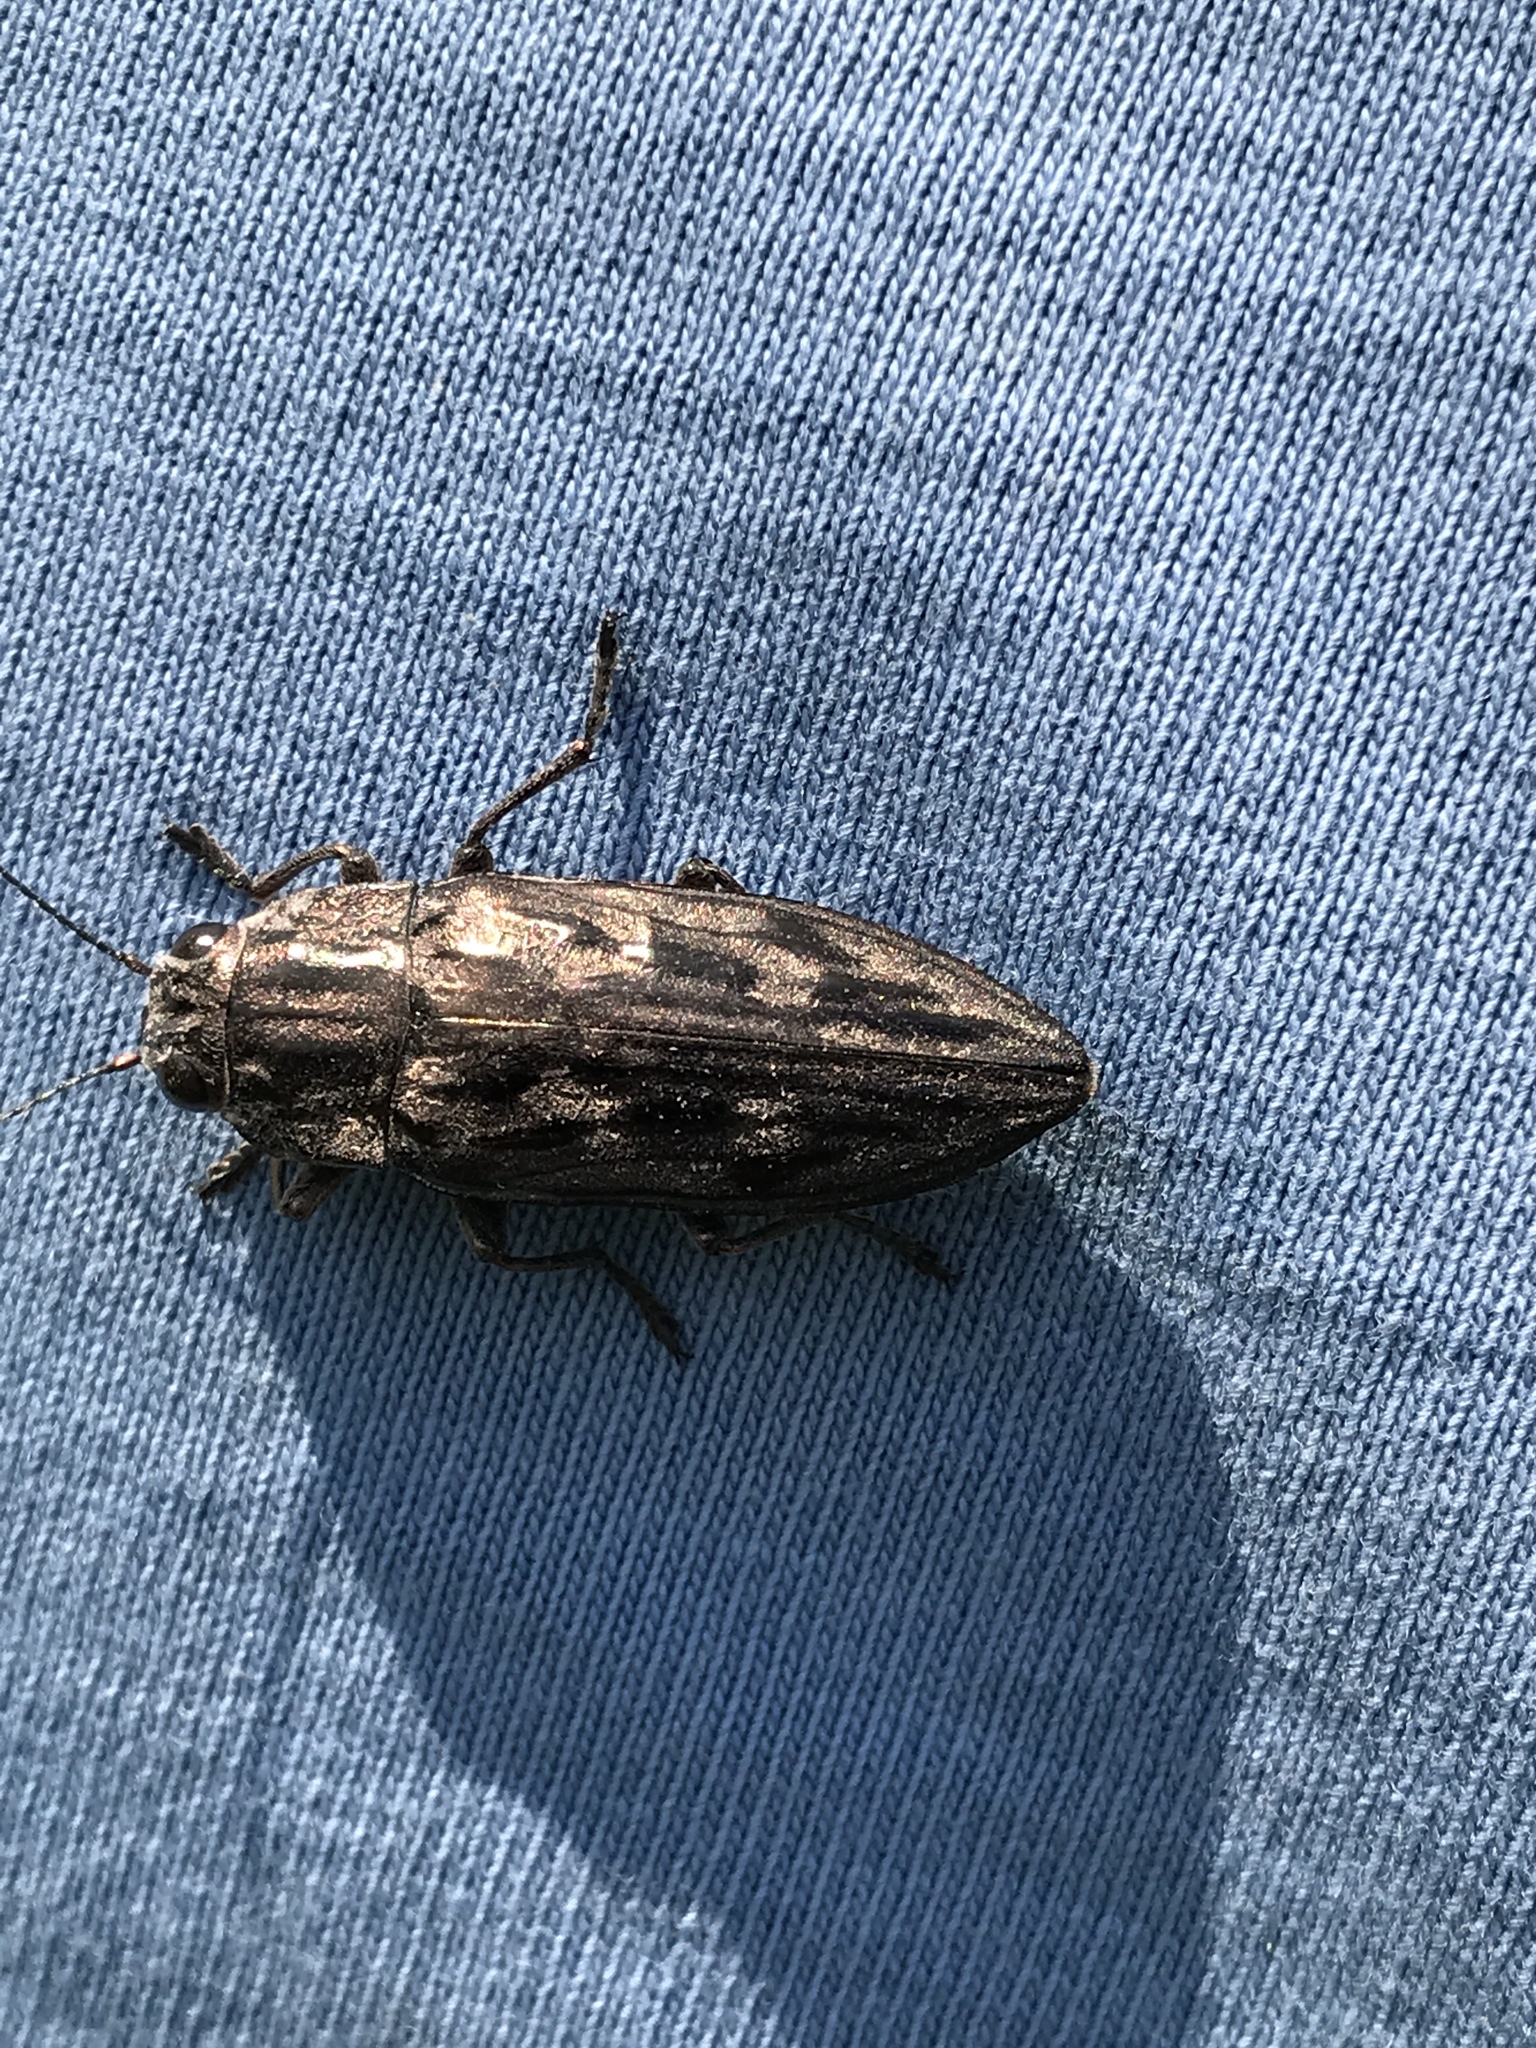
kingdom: Animalia
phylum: Arthropoda
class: Insecta
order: Coleoptera
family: Buprestidae
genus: Chalcophora
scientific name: Chalcophora virginiensis
